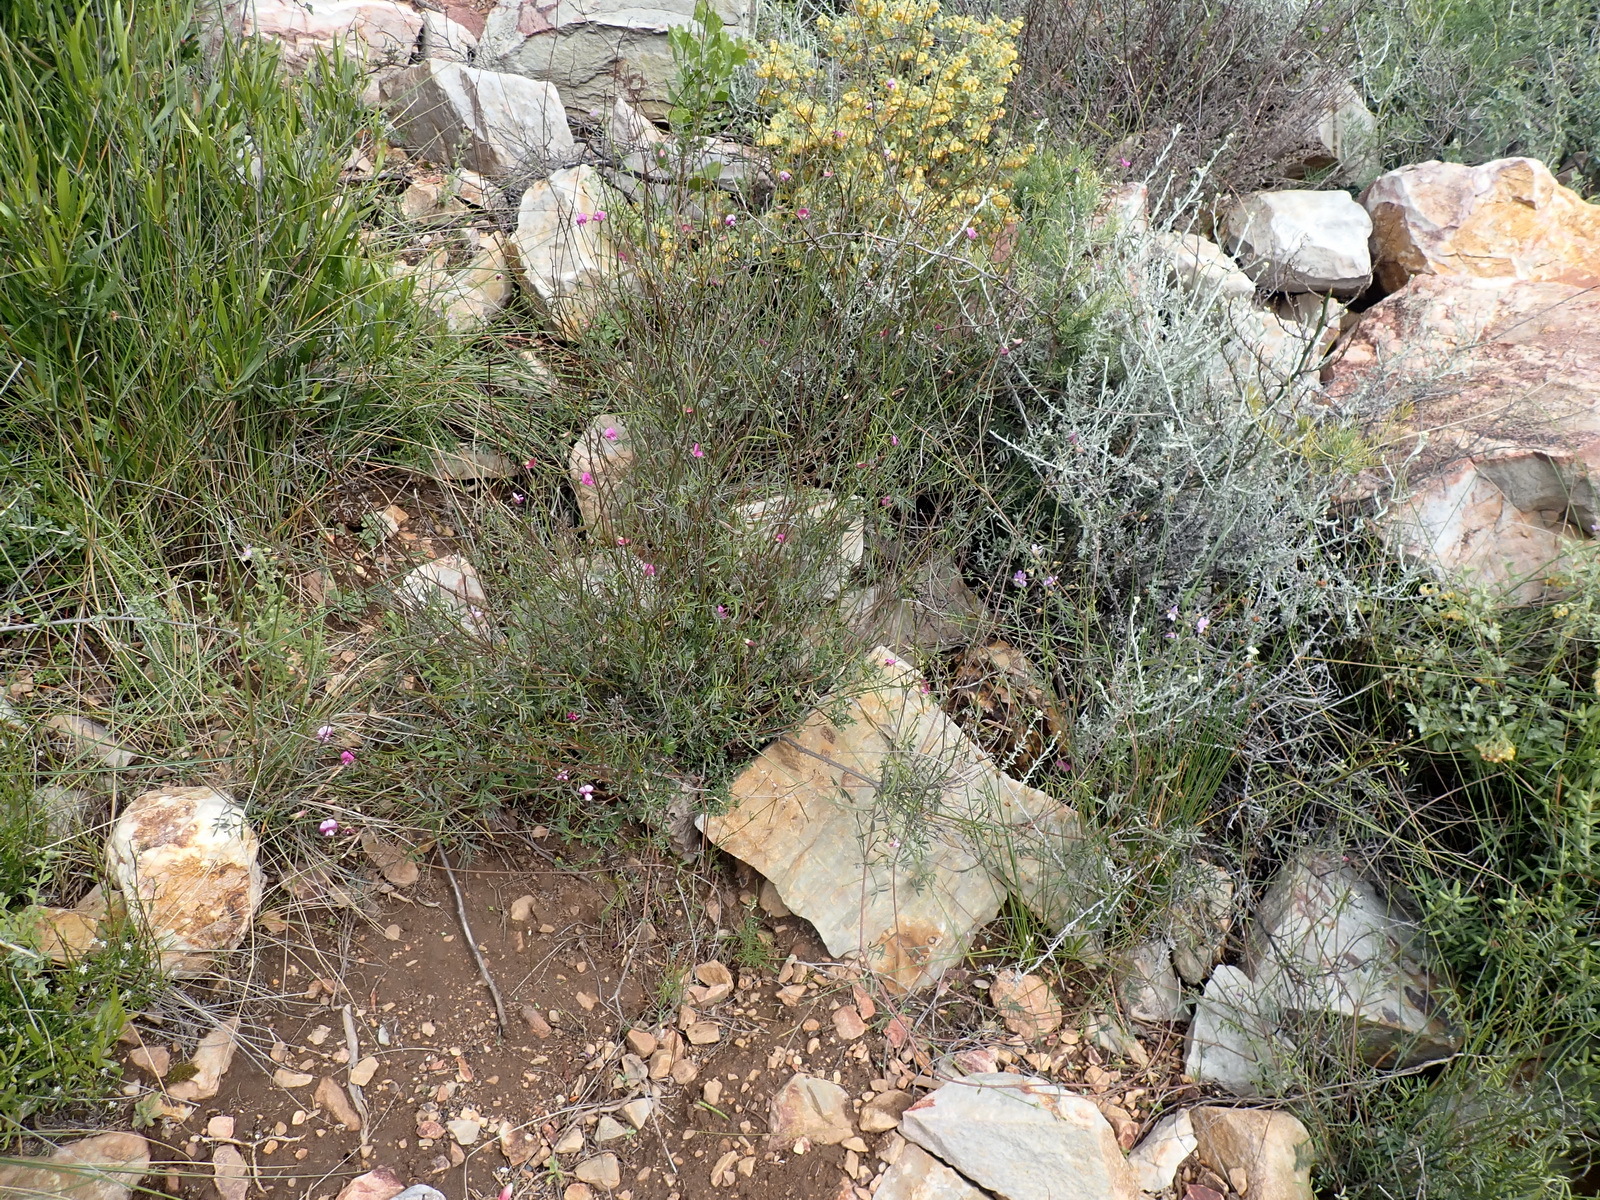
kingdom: Plantae
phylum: Tracheophyta
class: Magnoliopsida
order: Fabales
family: Fabaceae
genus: Tephrosia
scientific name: Tephrosia capensis
